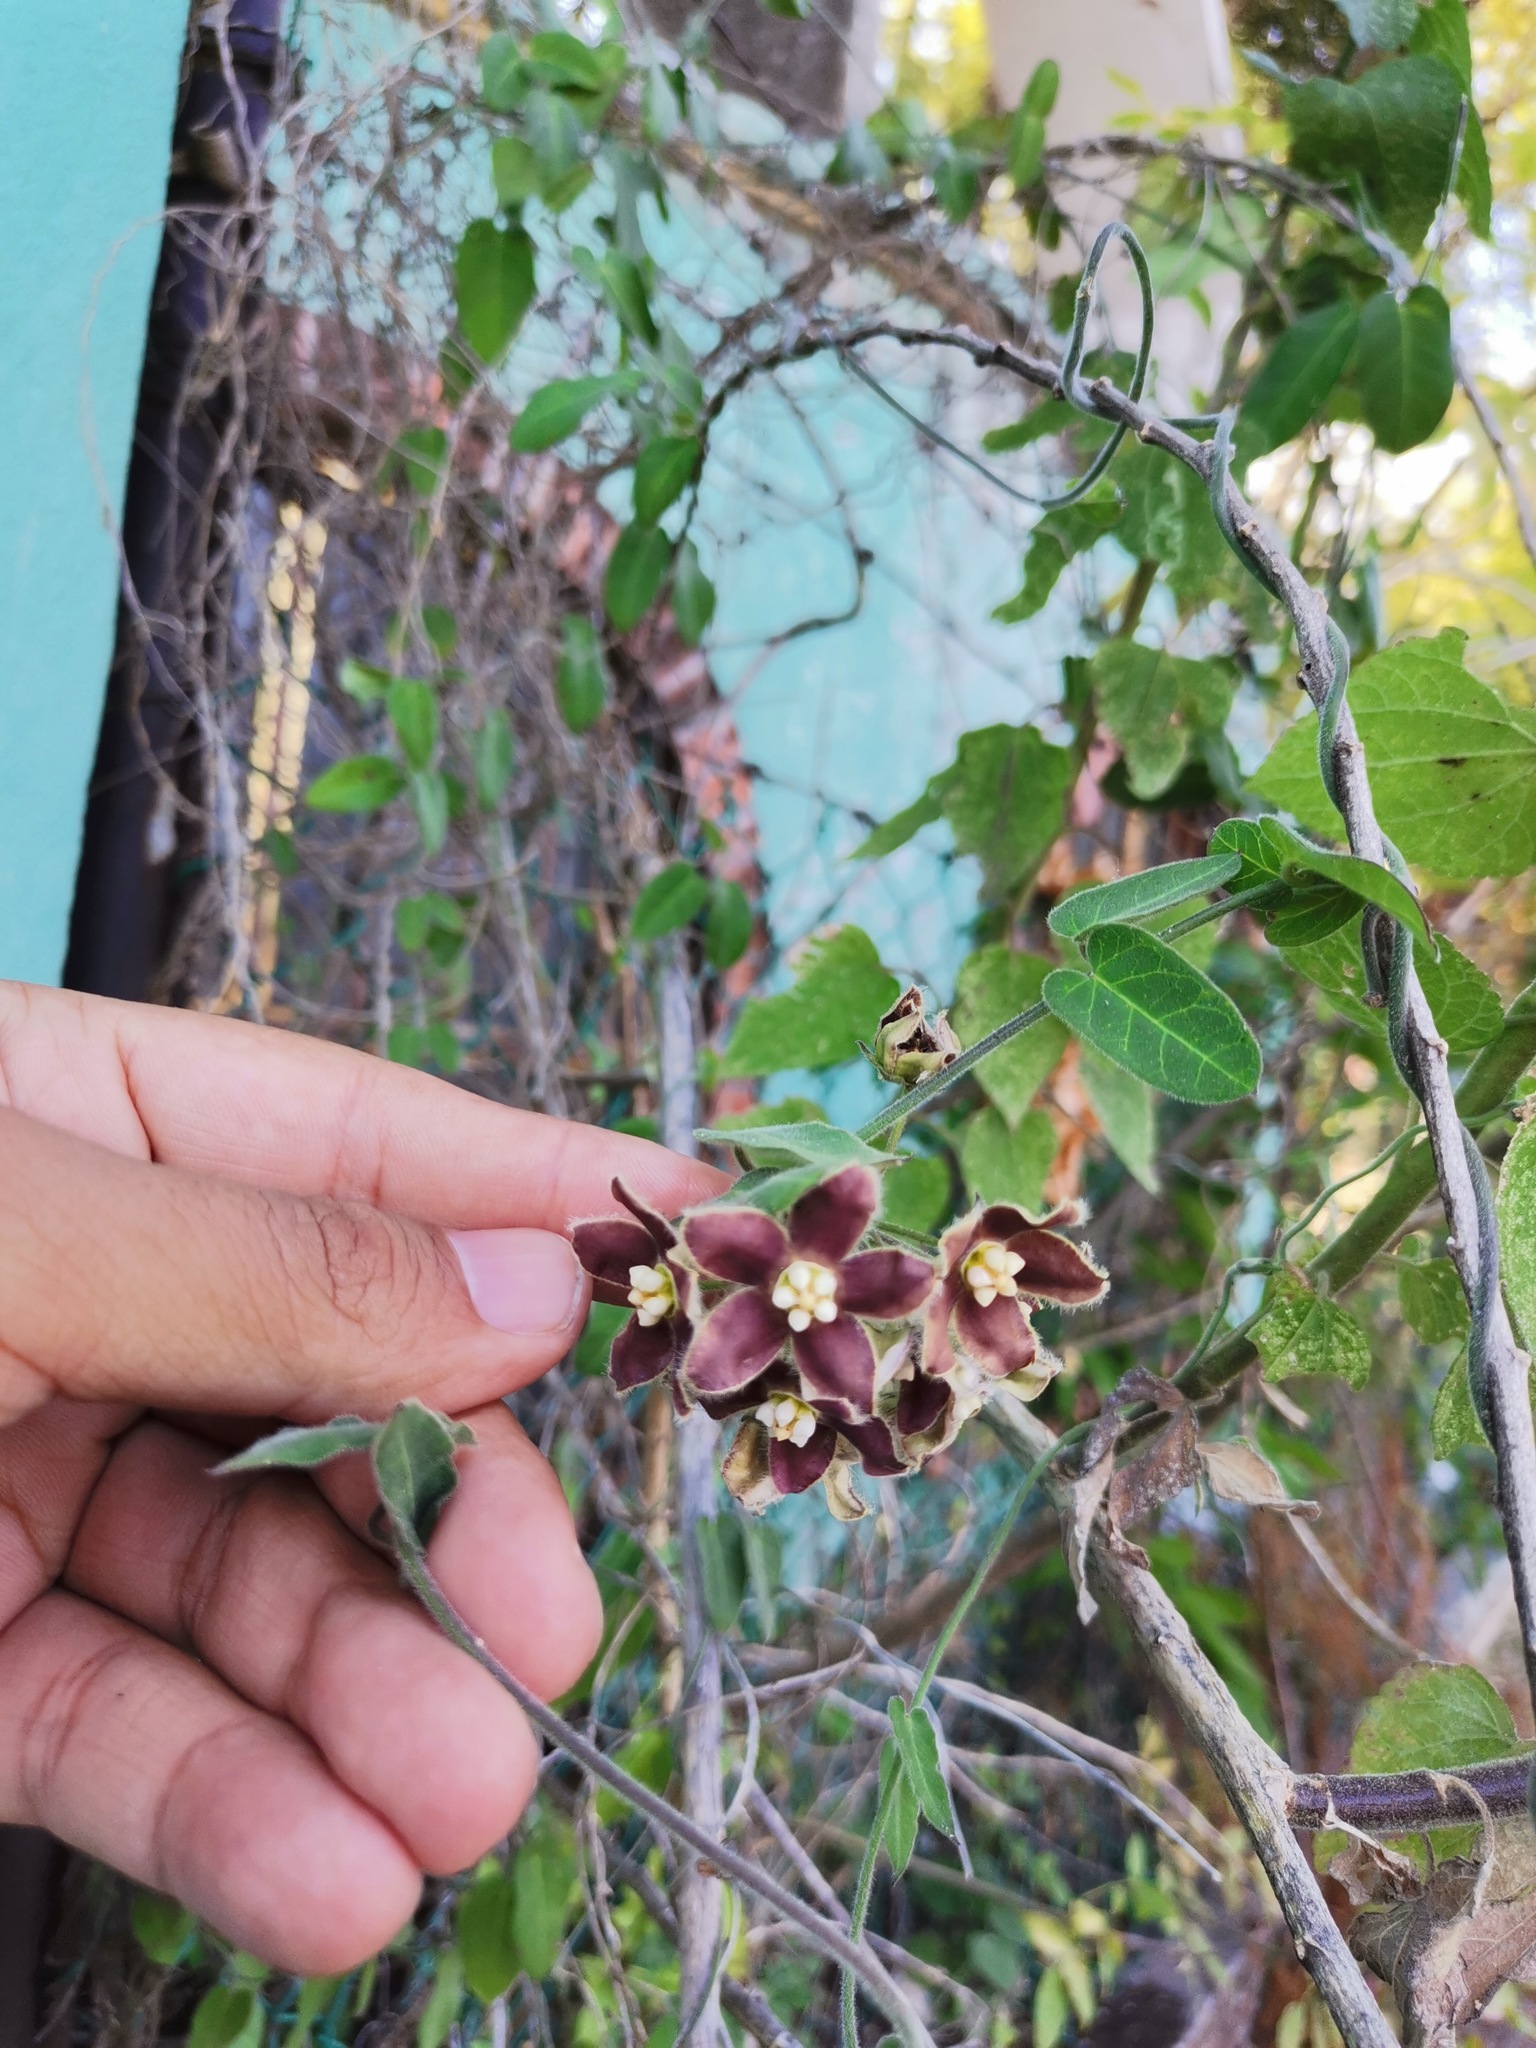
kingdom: Plantae
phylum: Tracheophyta
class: Magnoliopsida
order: Gentianales
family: Apocynaceae
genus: Funastrum
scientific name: Funastrum elegans
